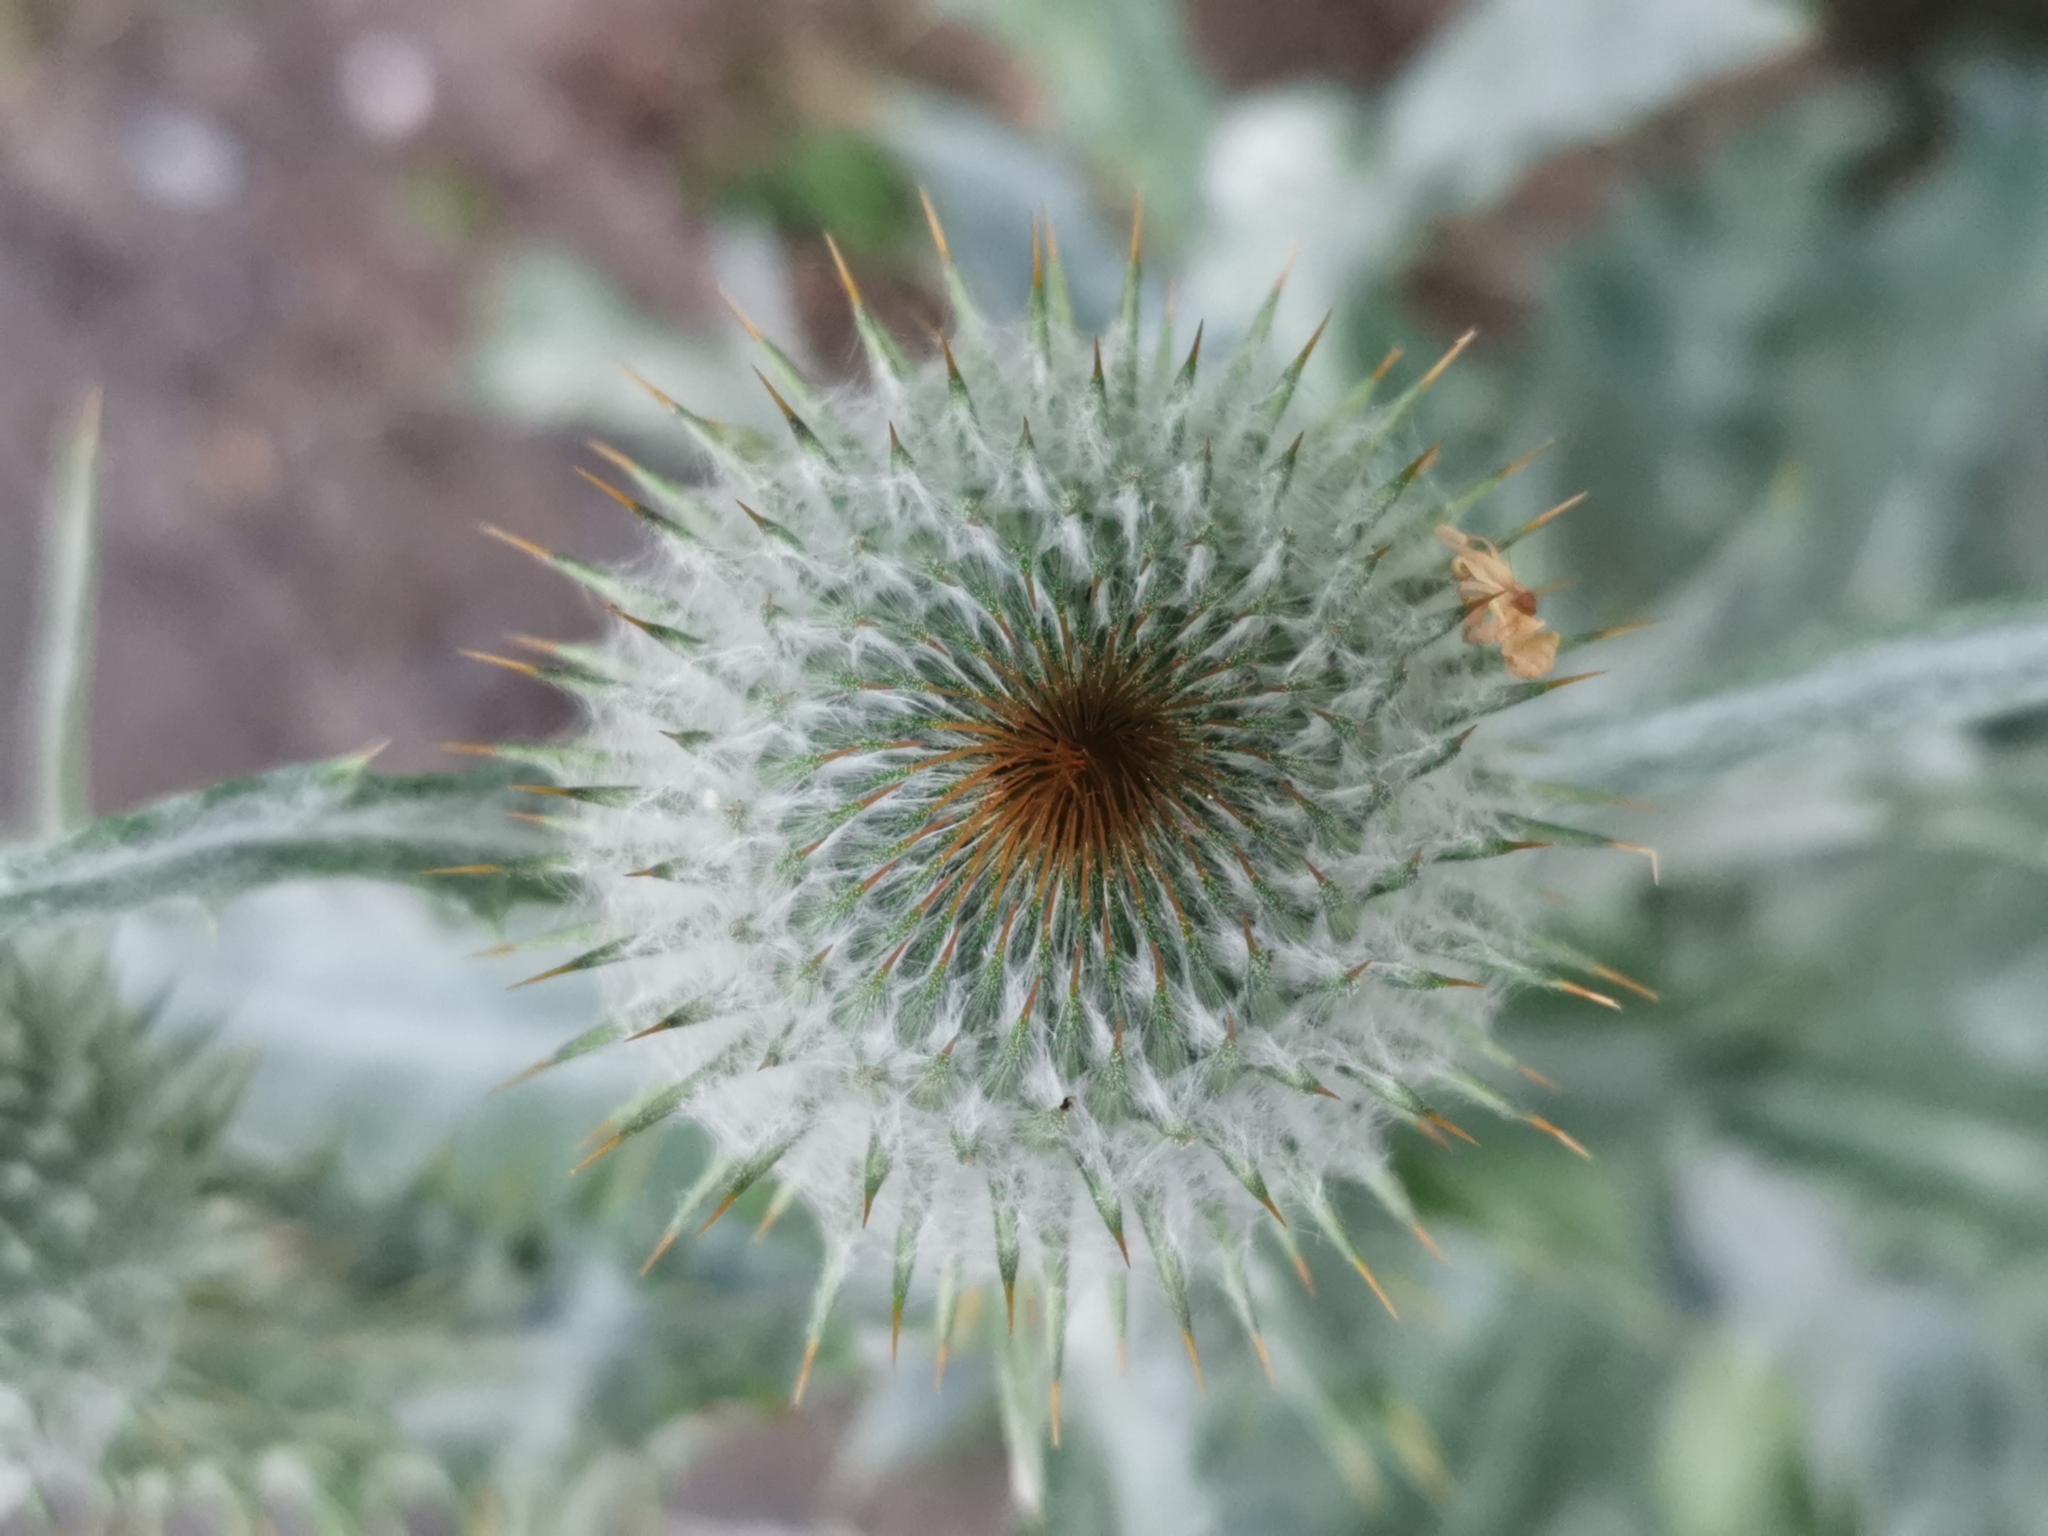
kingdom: Plantae
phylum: Tracheophyta
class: Magnoliopsida
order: Asterales
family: Asteraceae
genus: Onopordum
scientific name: Onopordum acanthium
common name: Scotch thistle
